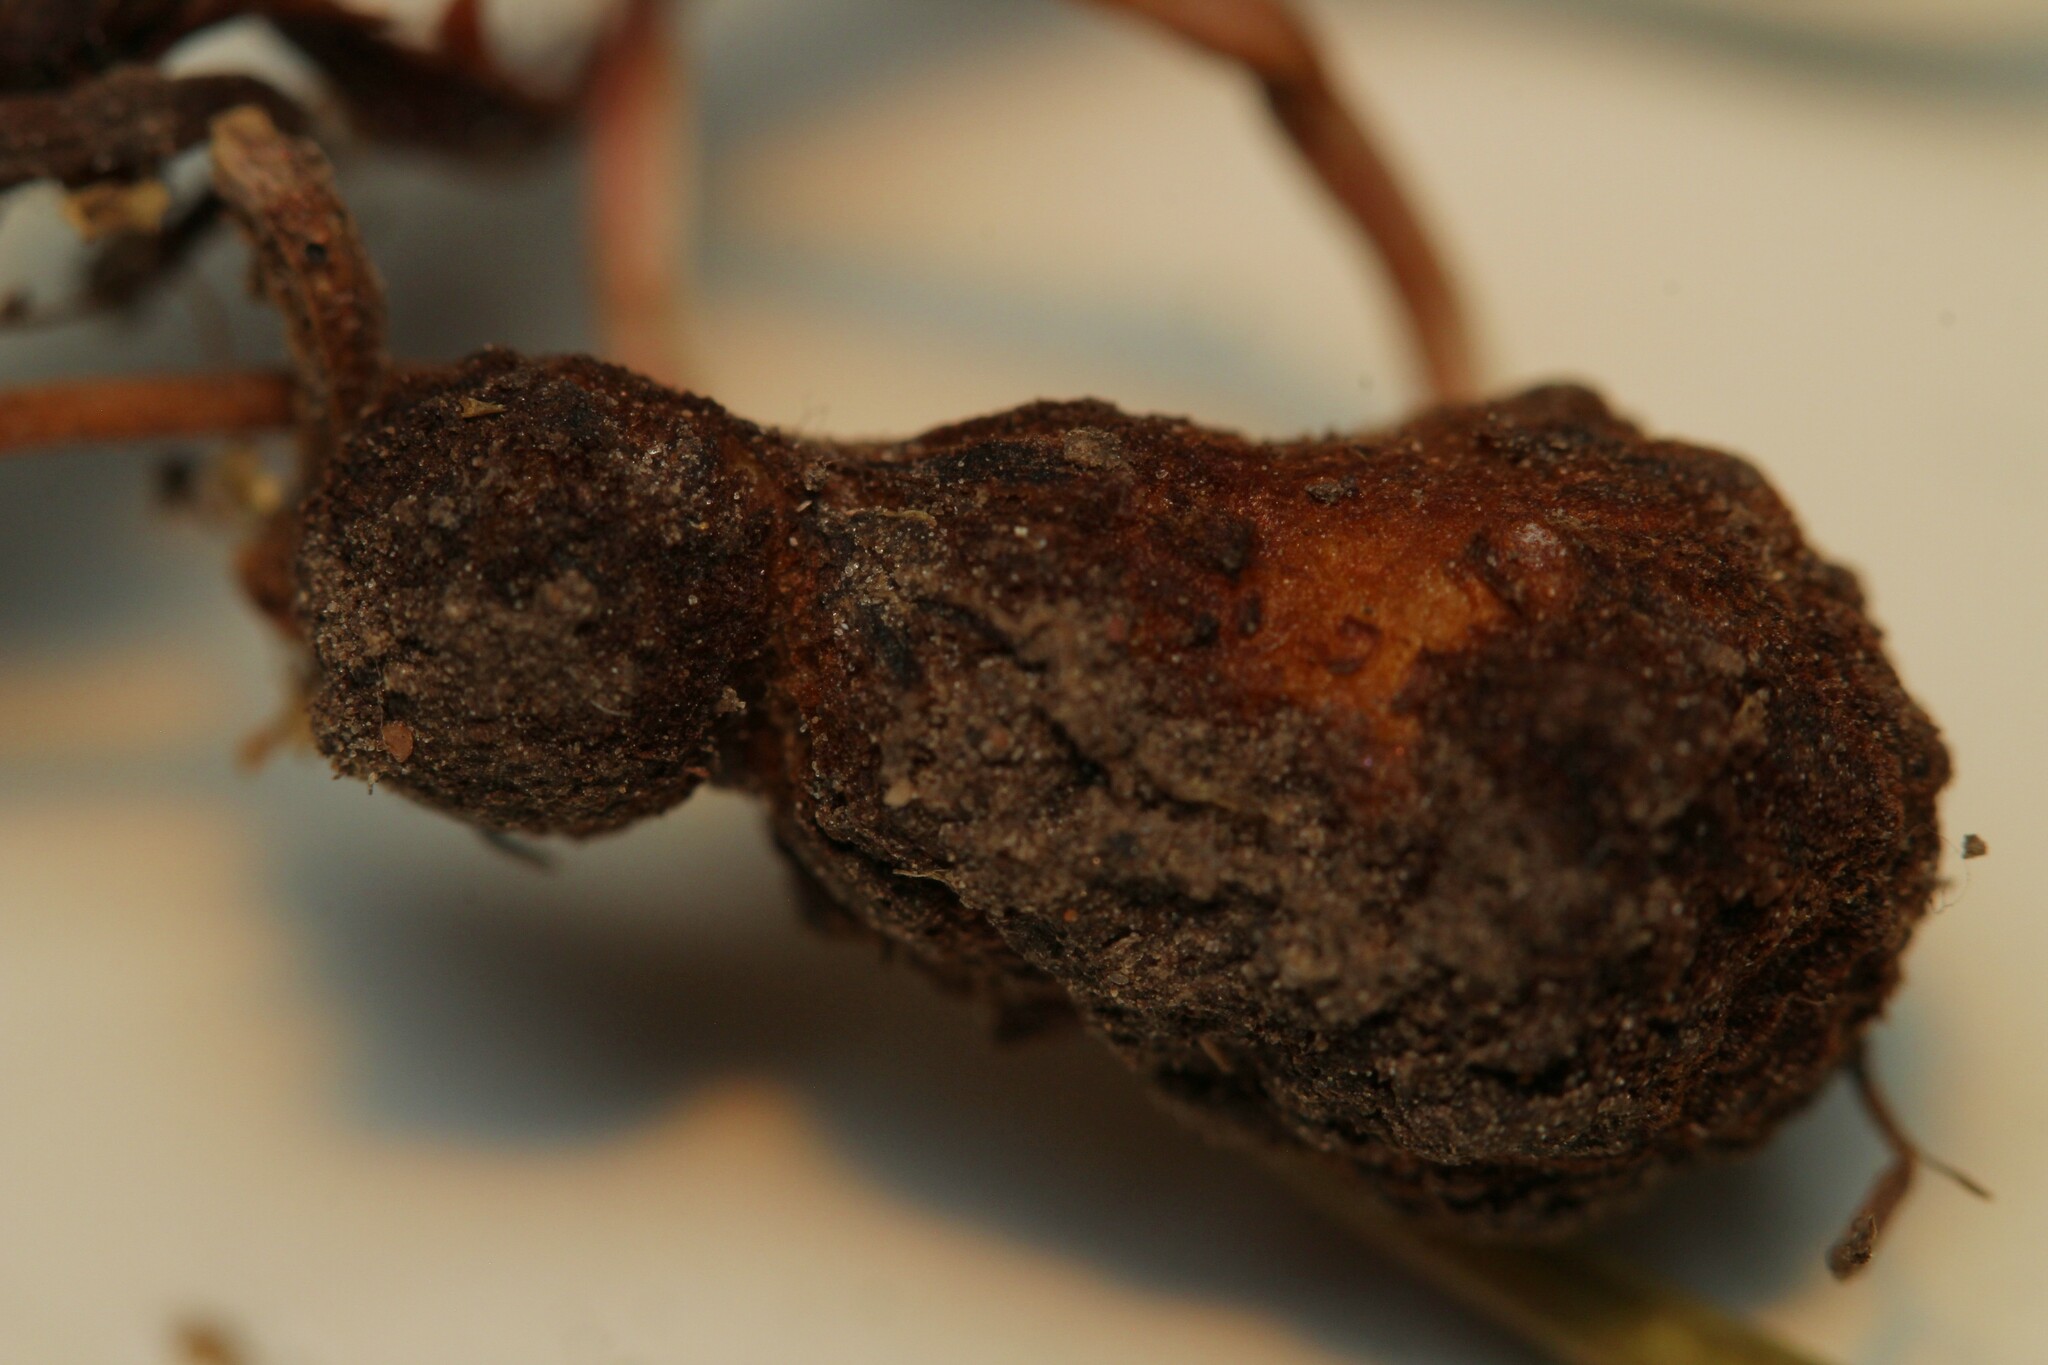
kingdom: Animalia
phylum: Arthropoda
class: Insecta
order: Hymenoptera
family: Cynipidae
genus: Xestophanes
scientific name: Xestophanes potentillae
